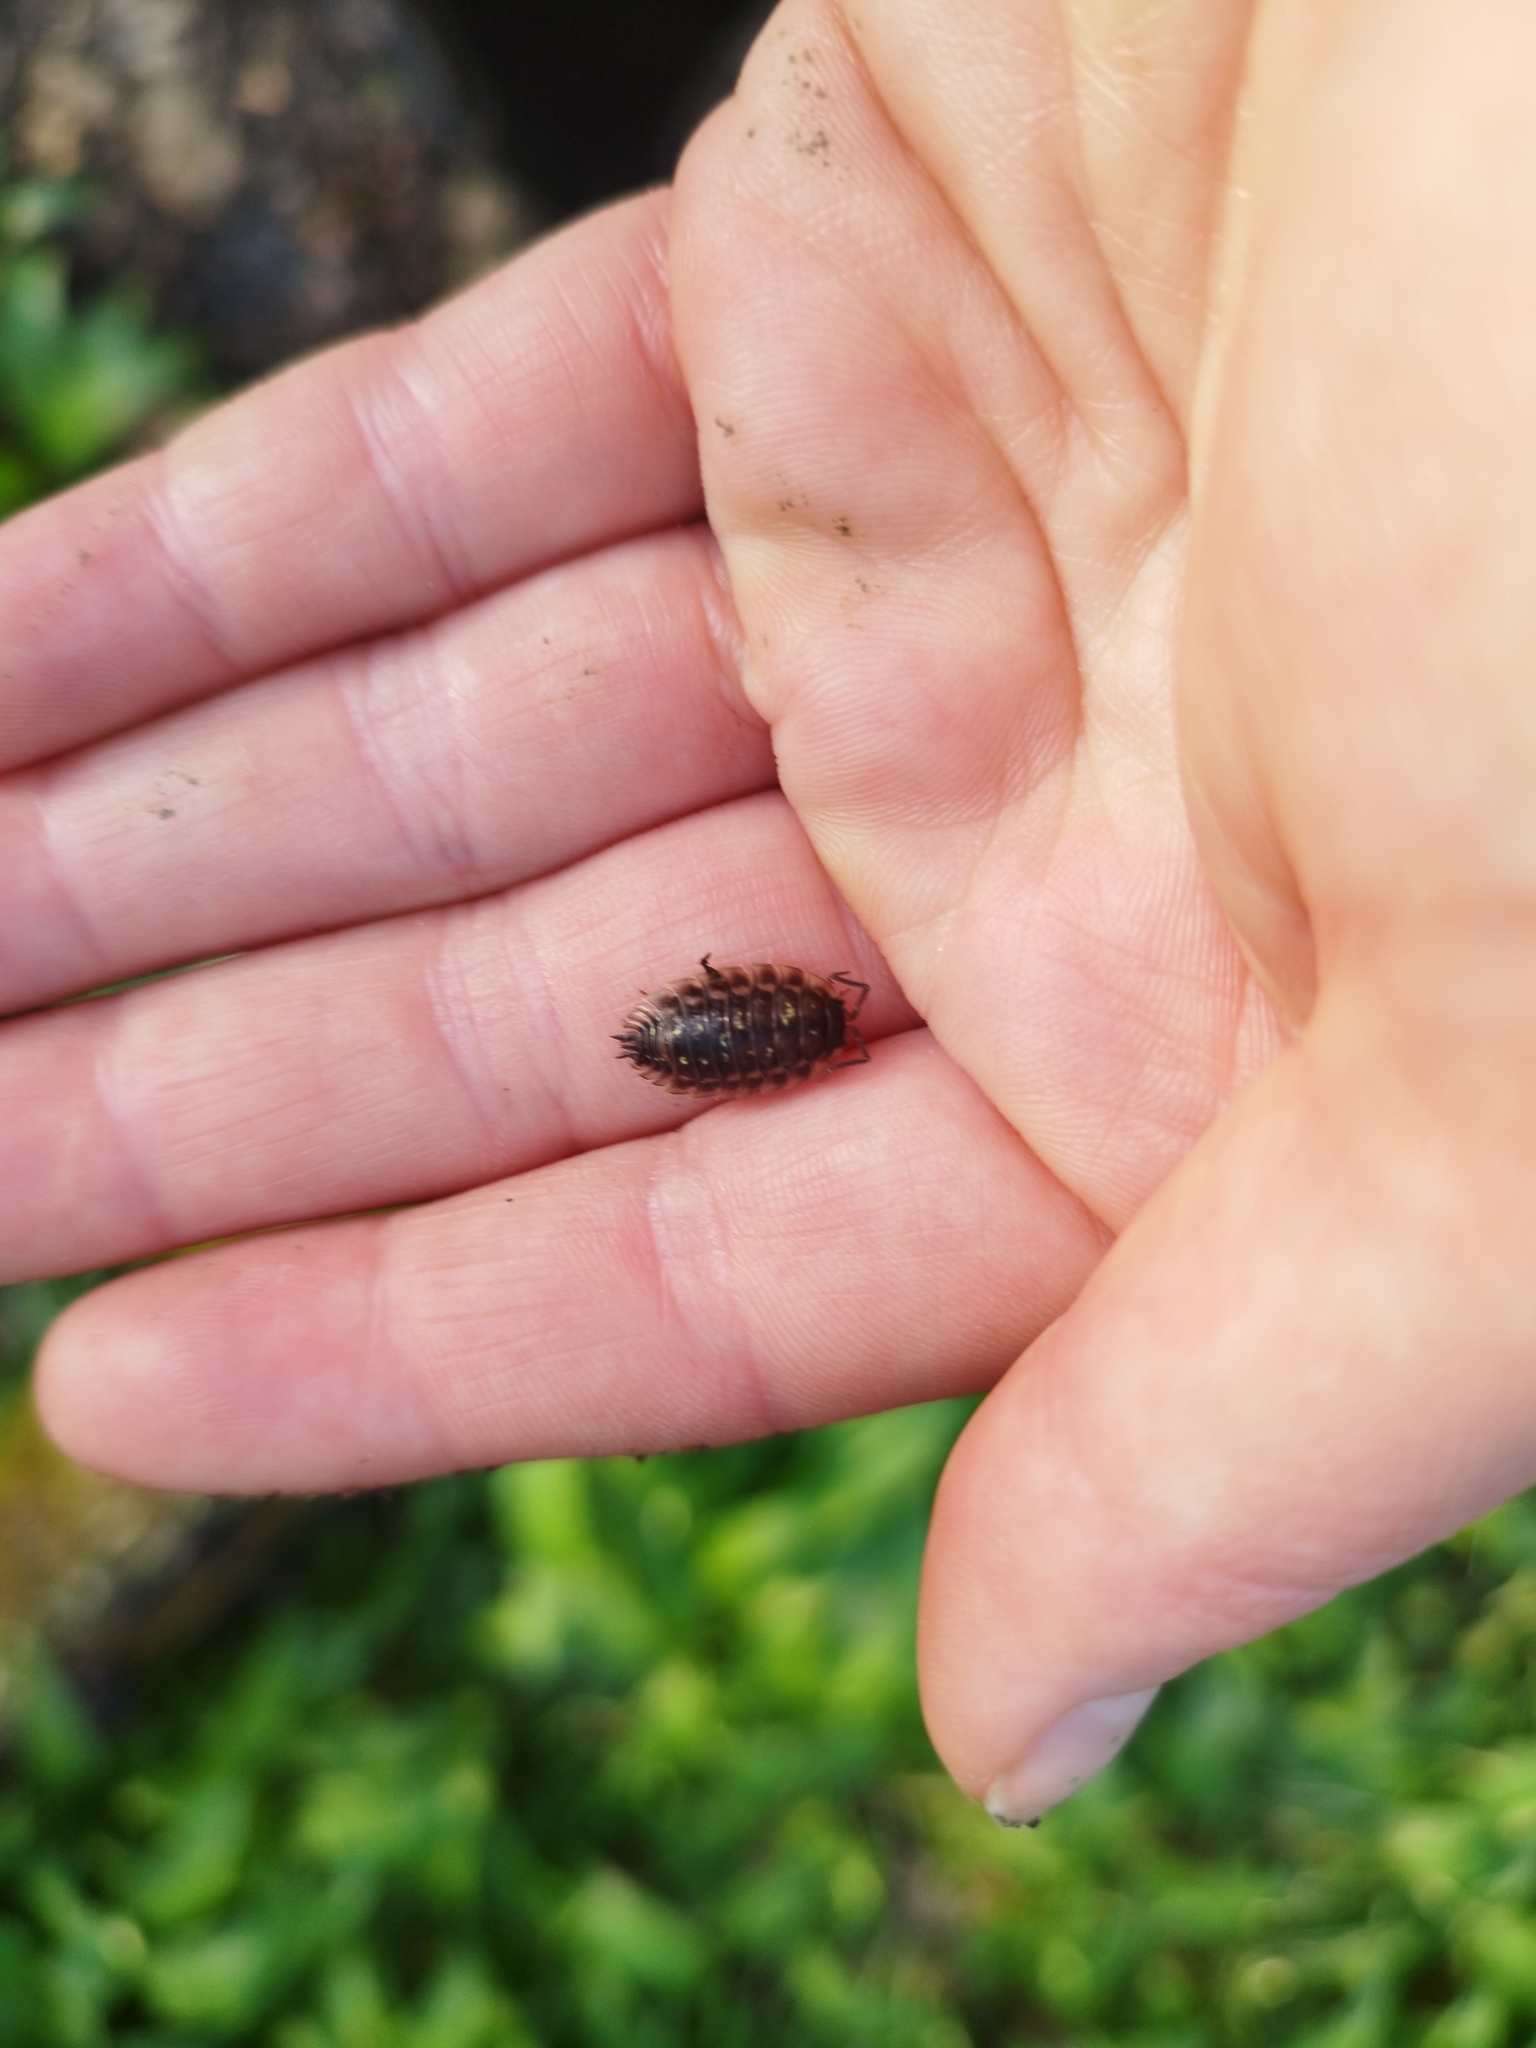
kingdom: Animalia
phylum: Arthropoda
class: Malacostraca
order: Isopoda
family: Oniscidae
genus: Oniscus
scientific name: Oniscus asellus
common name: Common shiny woodlouse
